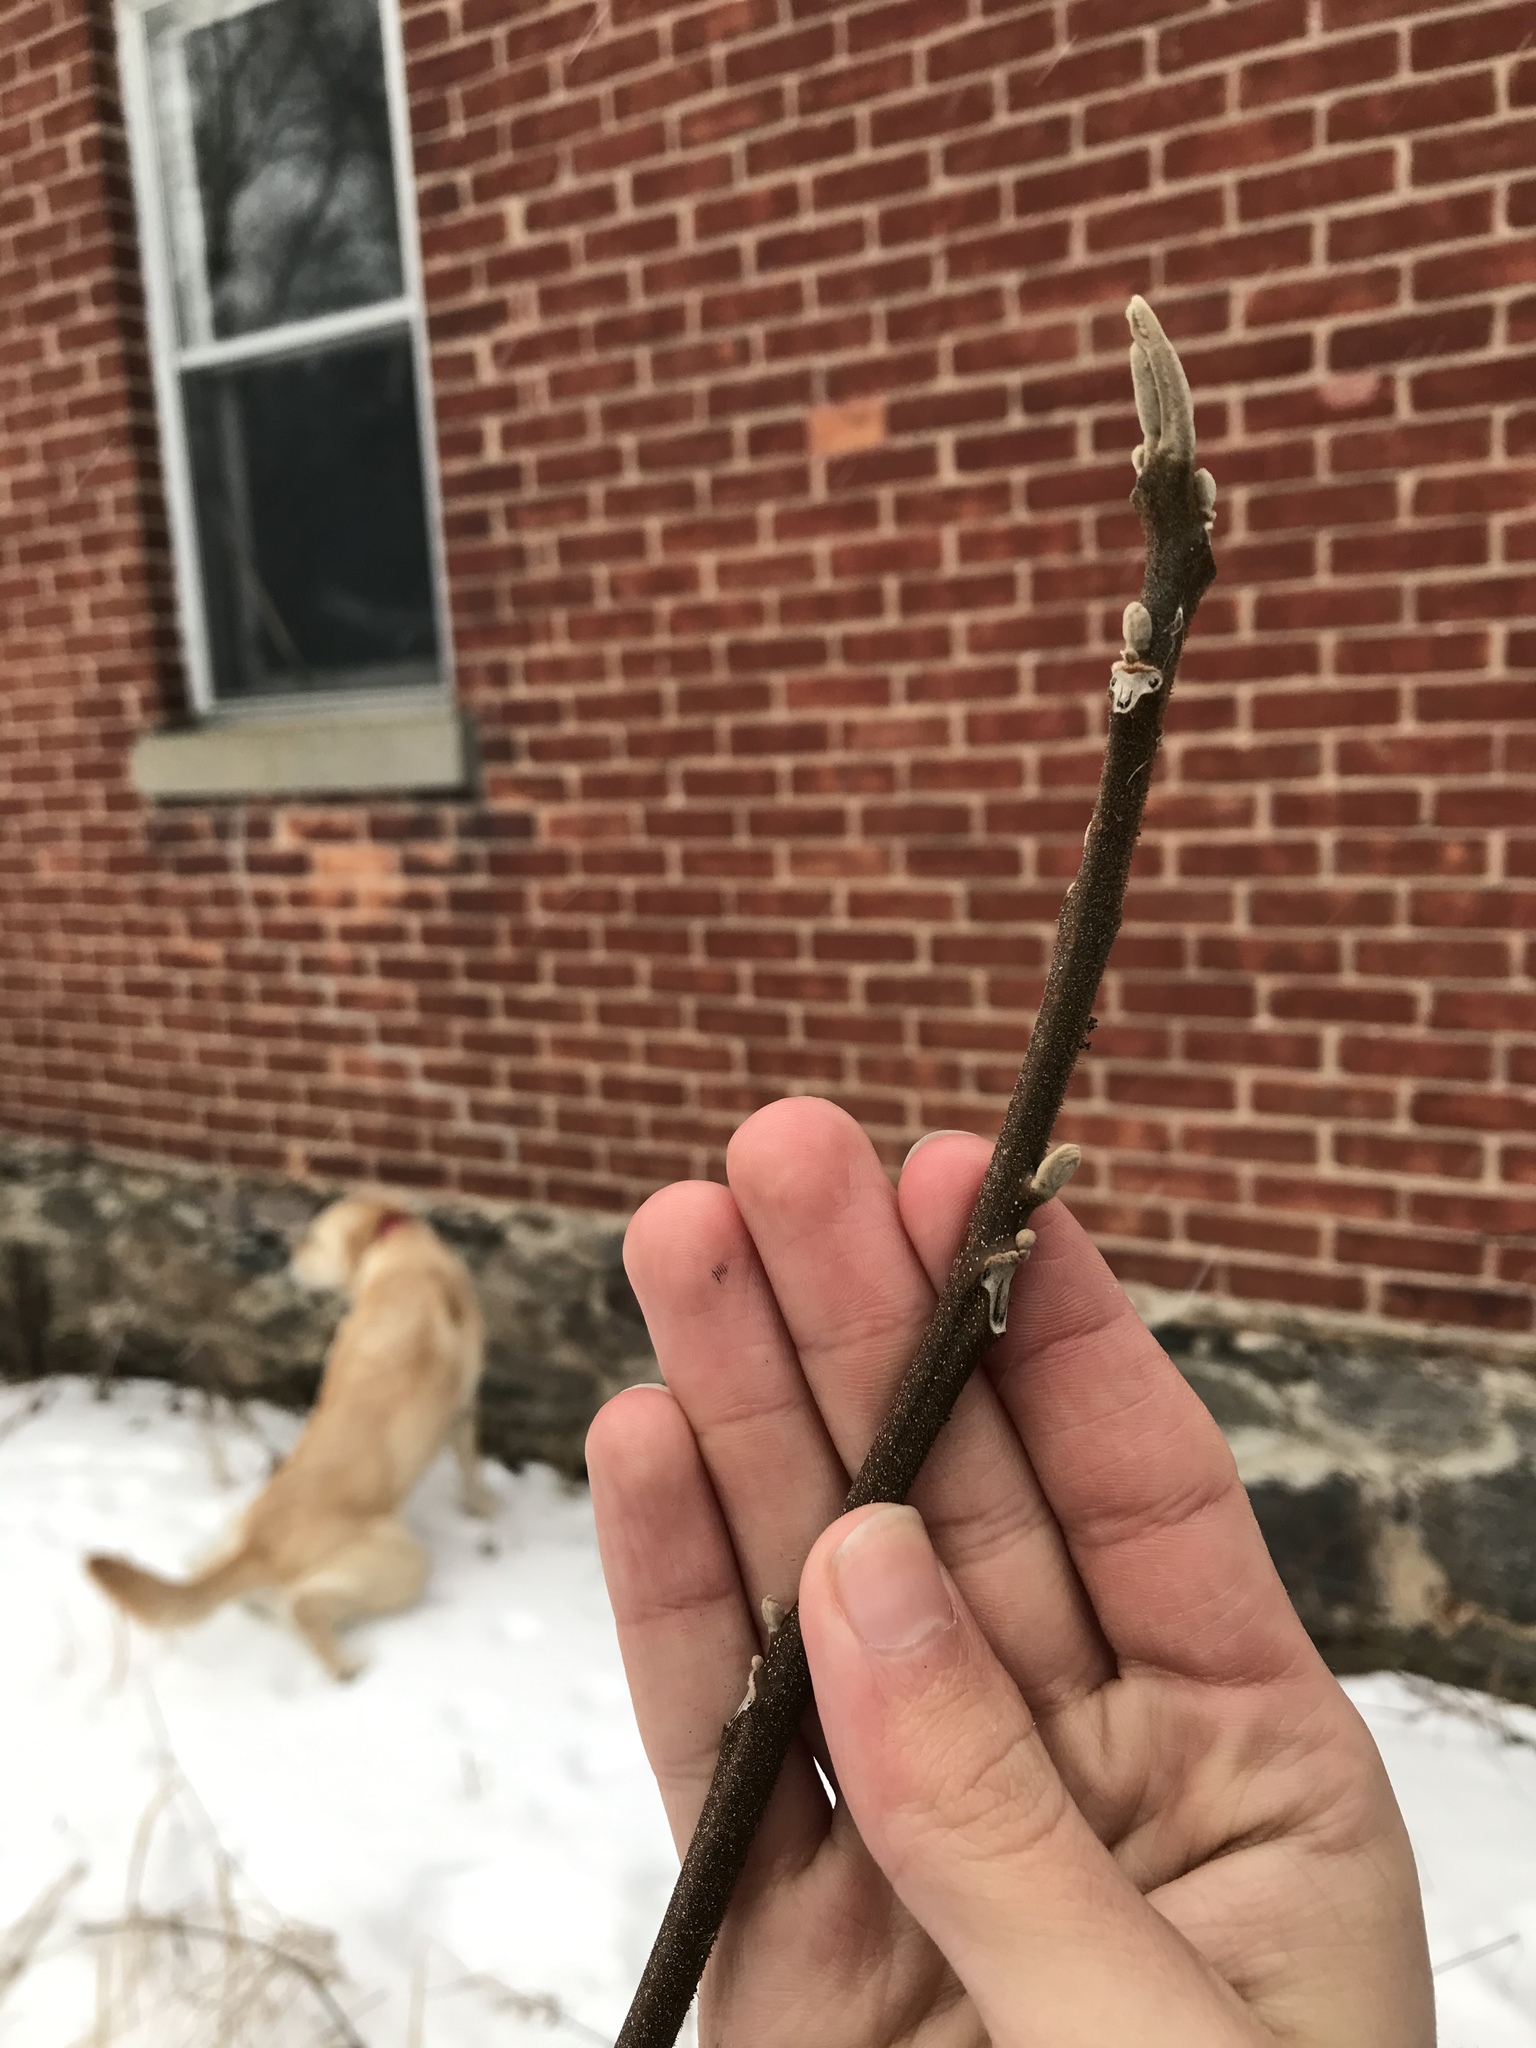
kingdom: Plantae
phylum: Tracheophyta
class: Magnoliopsida
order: Fagales
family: Juglandaceae
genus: Juglans
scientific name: Juglans cinerea
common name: Butternut
